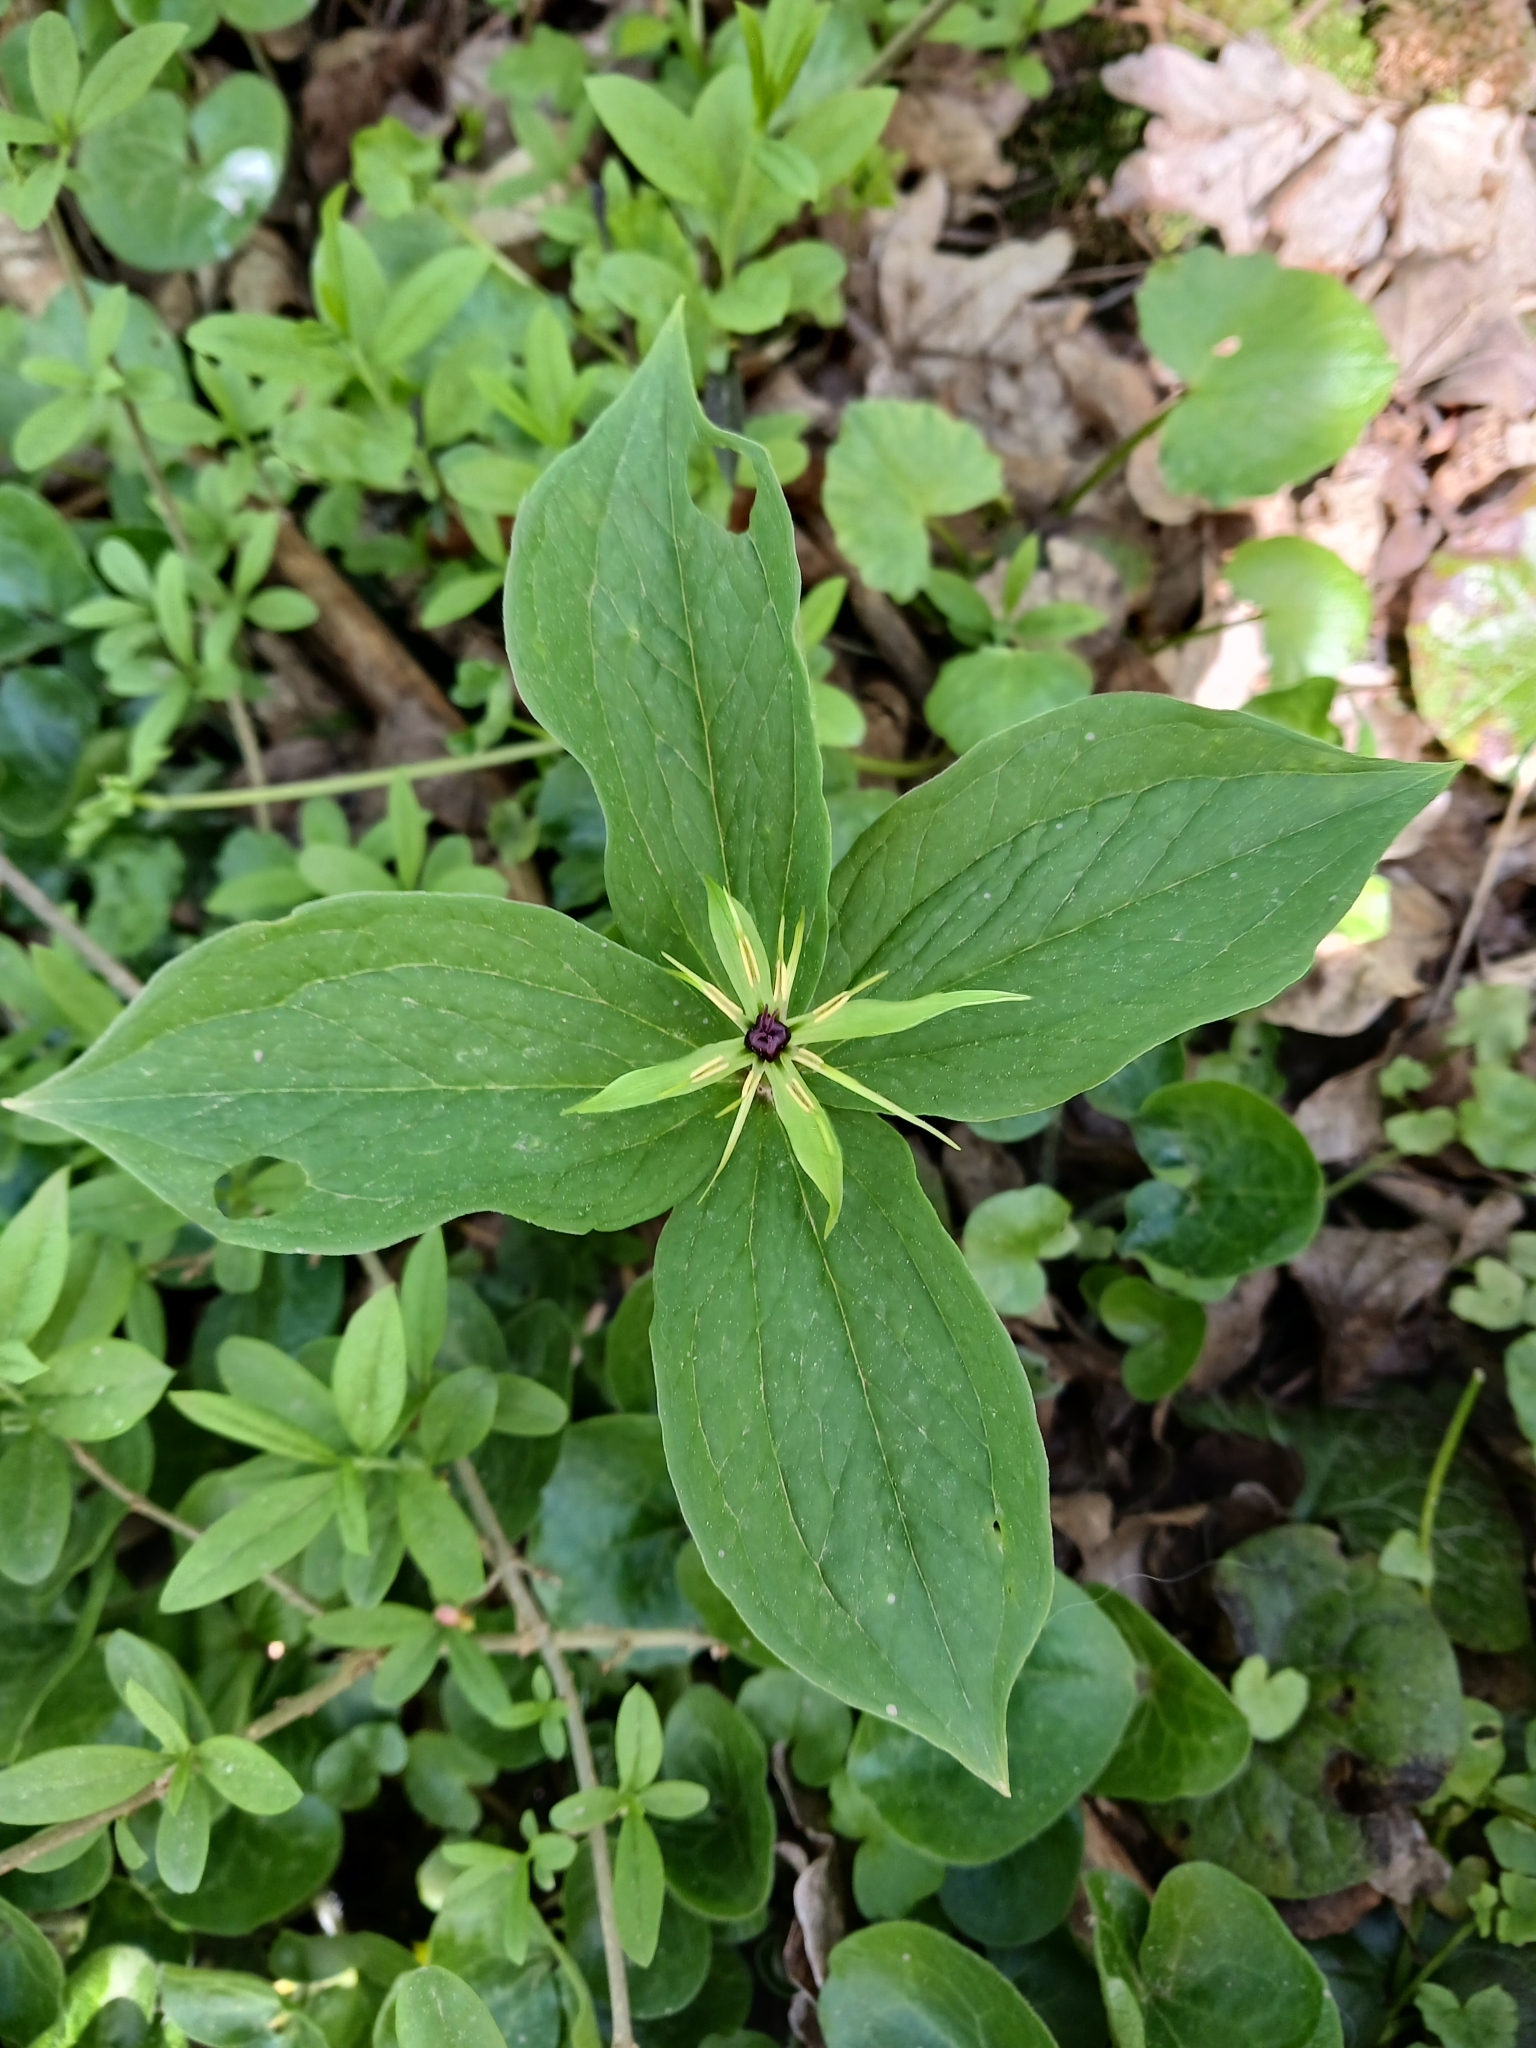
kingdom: Plantae
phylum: Tracheophyta
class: Liliopsida
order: Liliales
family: Melanthiaceae
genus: Paris
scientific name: Paris quadrifolia
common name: Herb-paris
